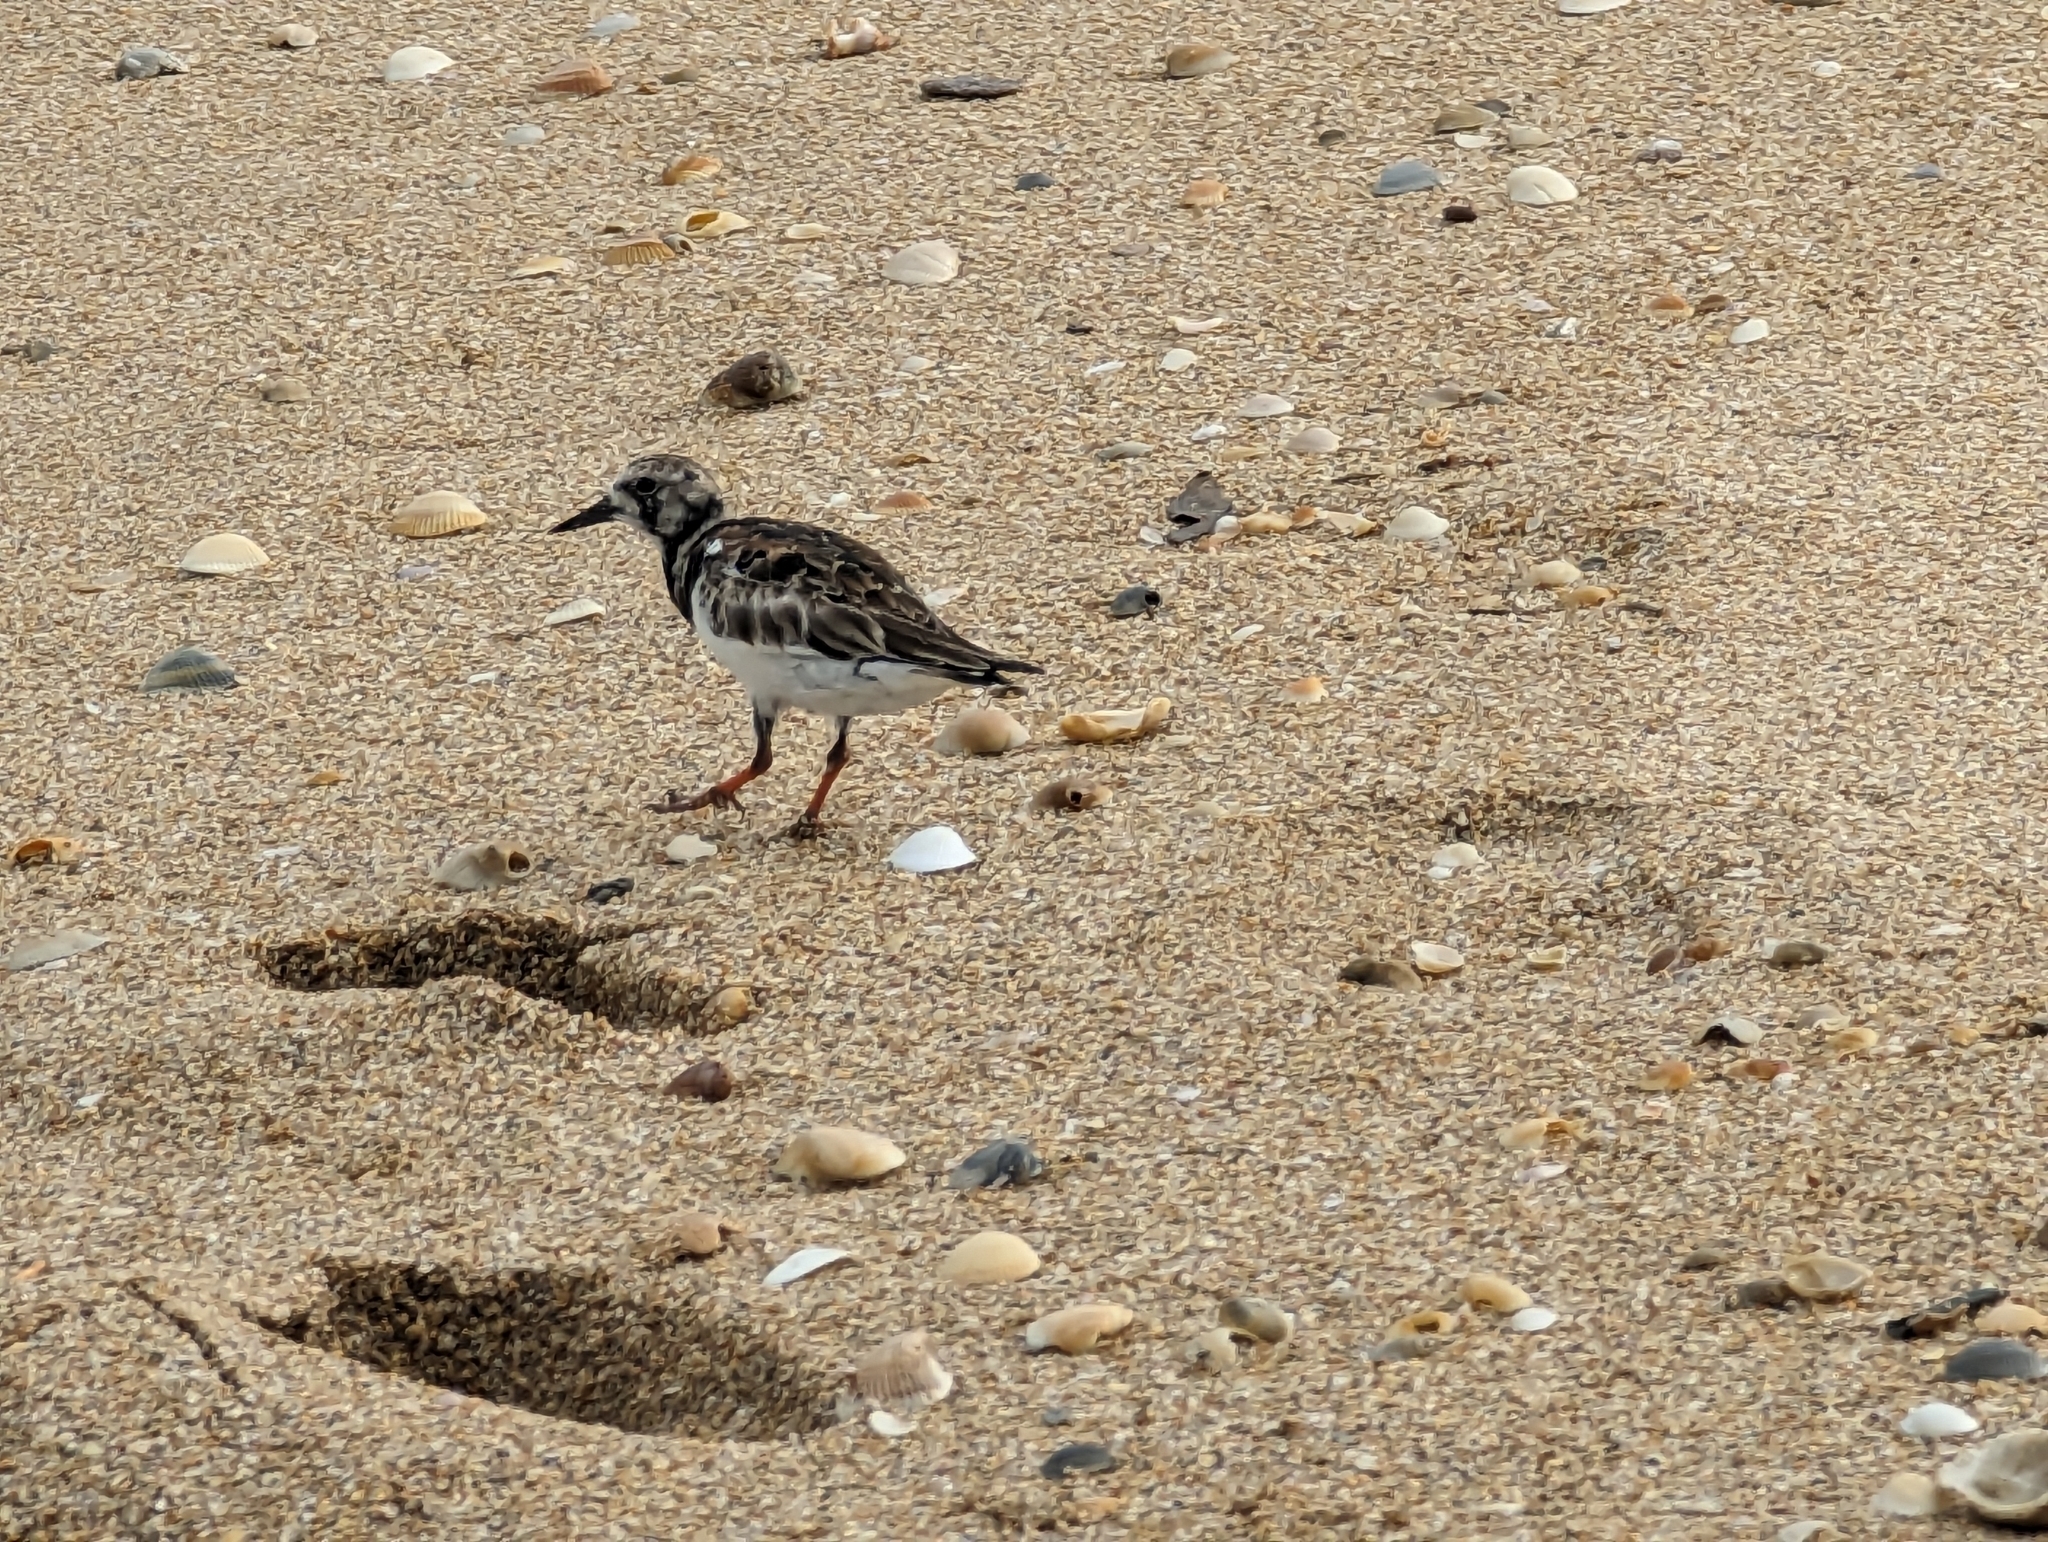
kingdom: Animalia
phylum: Chordata
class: Aves
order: Charadriiformes
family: Scolopacidae
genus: Arenaria
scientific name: Arenaria interpres
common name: Ruddy turnstone
